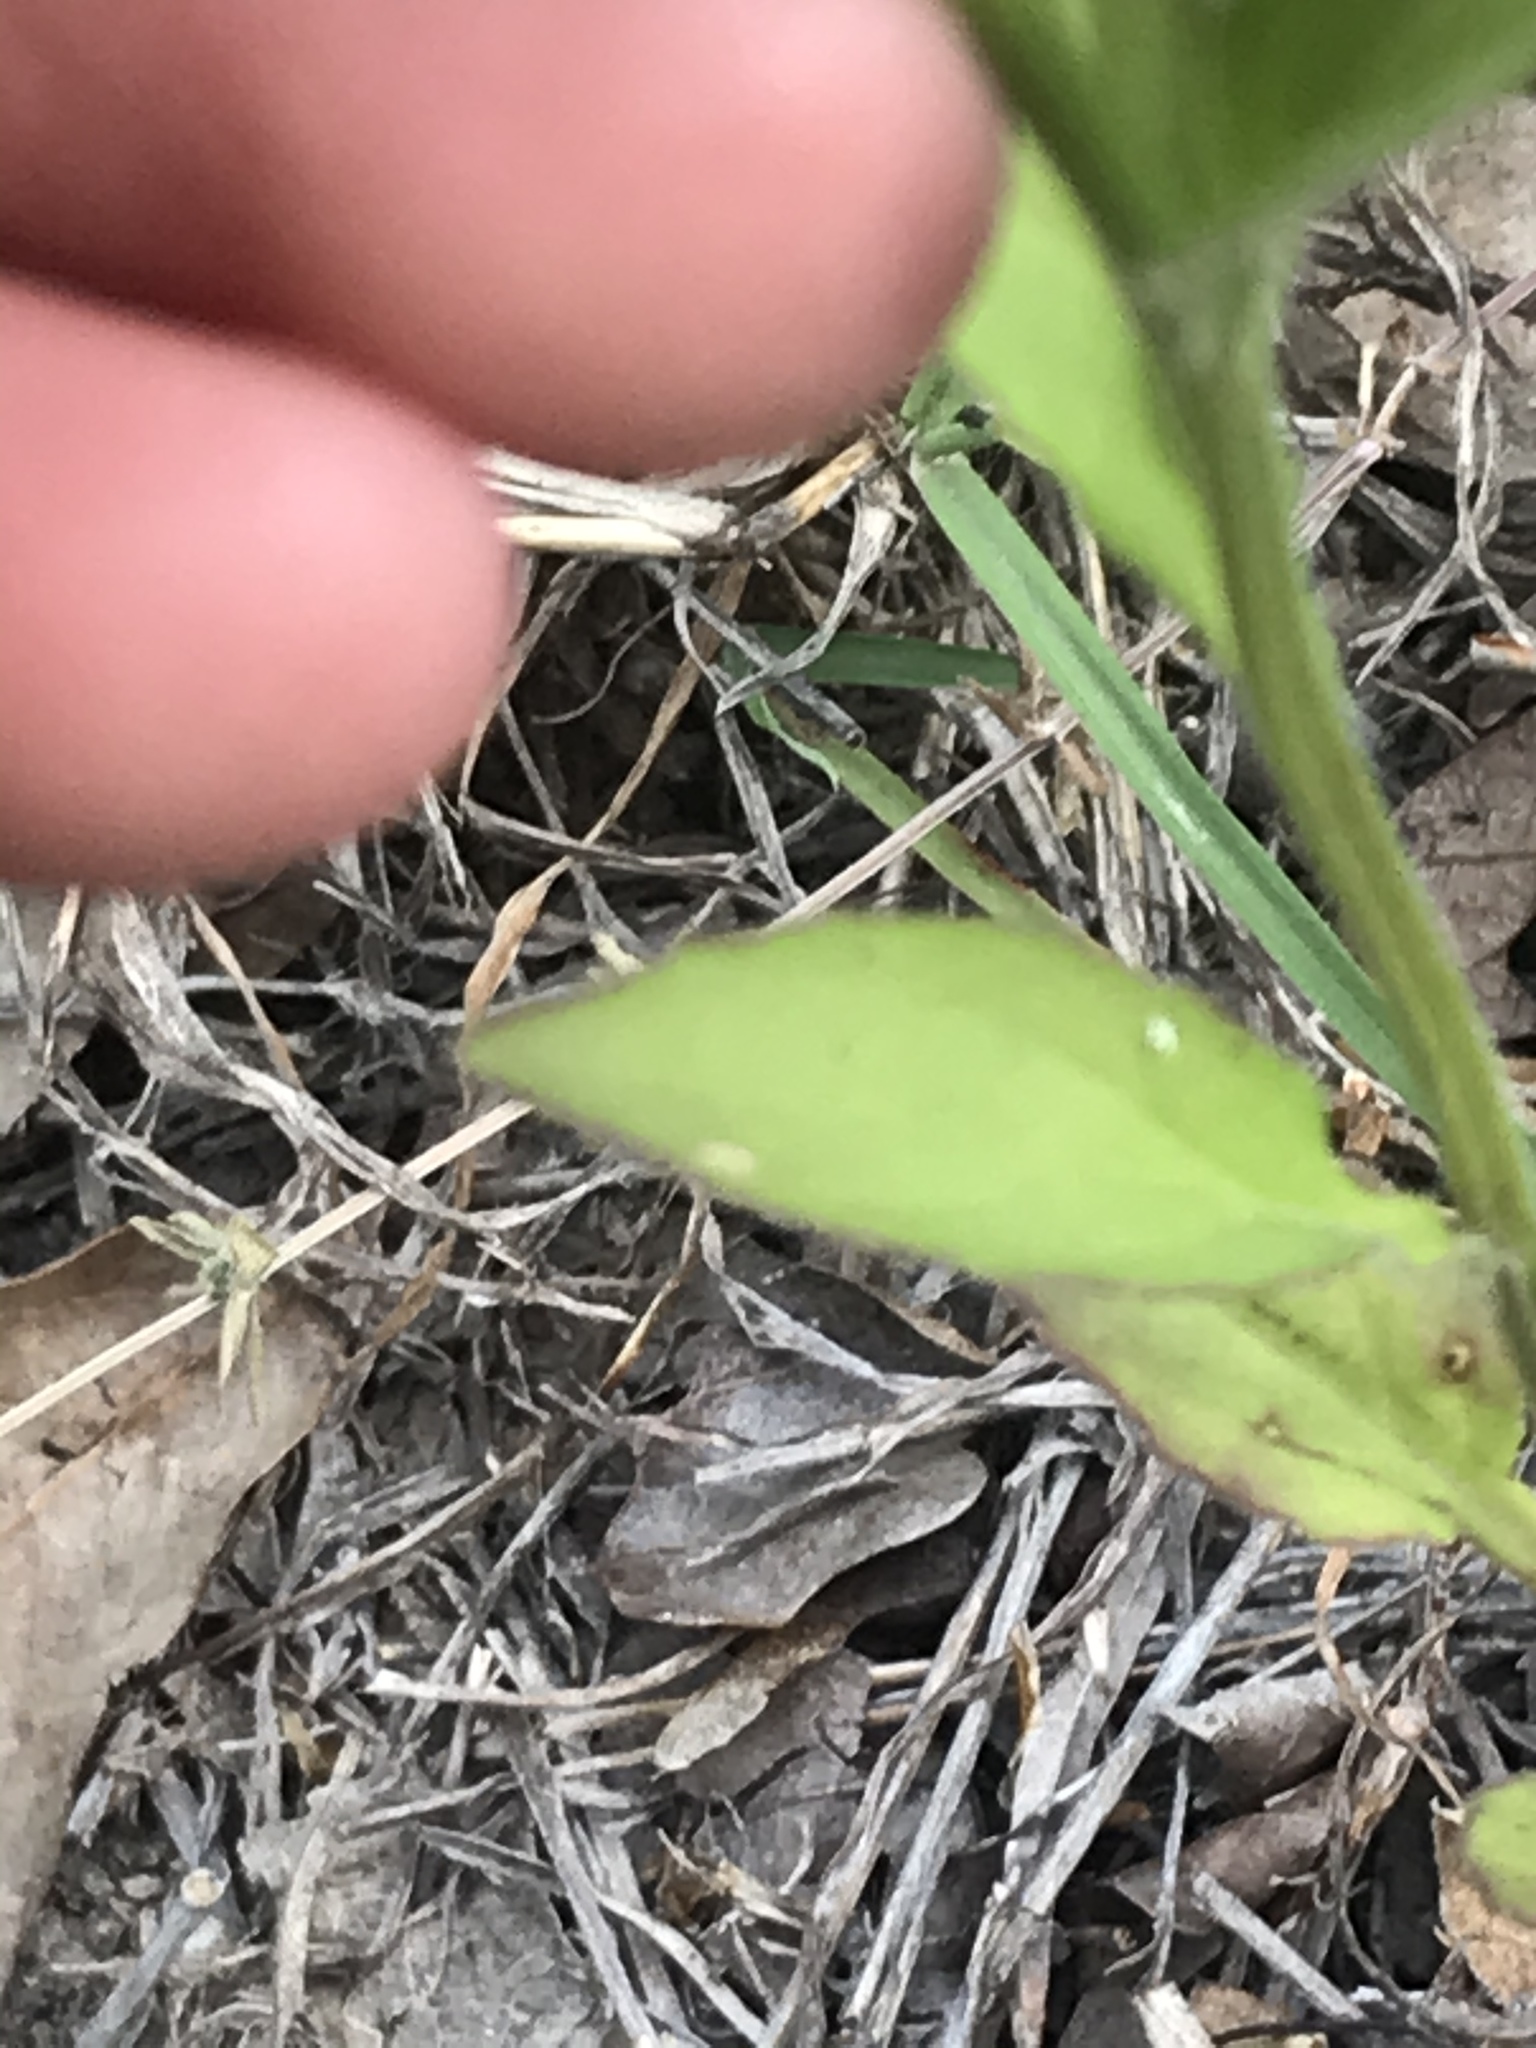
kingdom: Plantae
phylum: Tracheophyta
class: Magnoliopsida
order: Asterales
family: Campanulaceae
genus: Triodanis
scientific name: Triodanis coloradoensis
